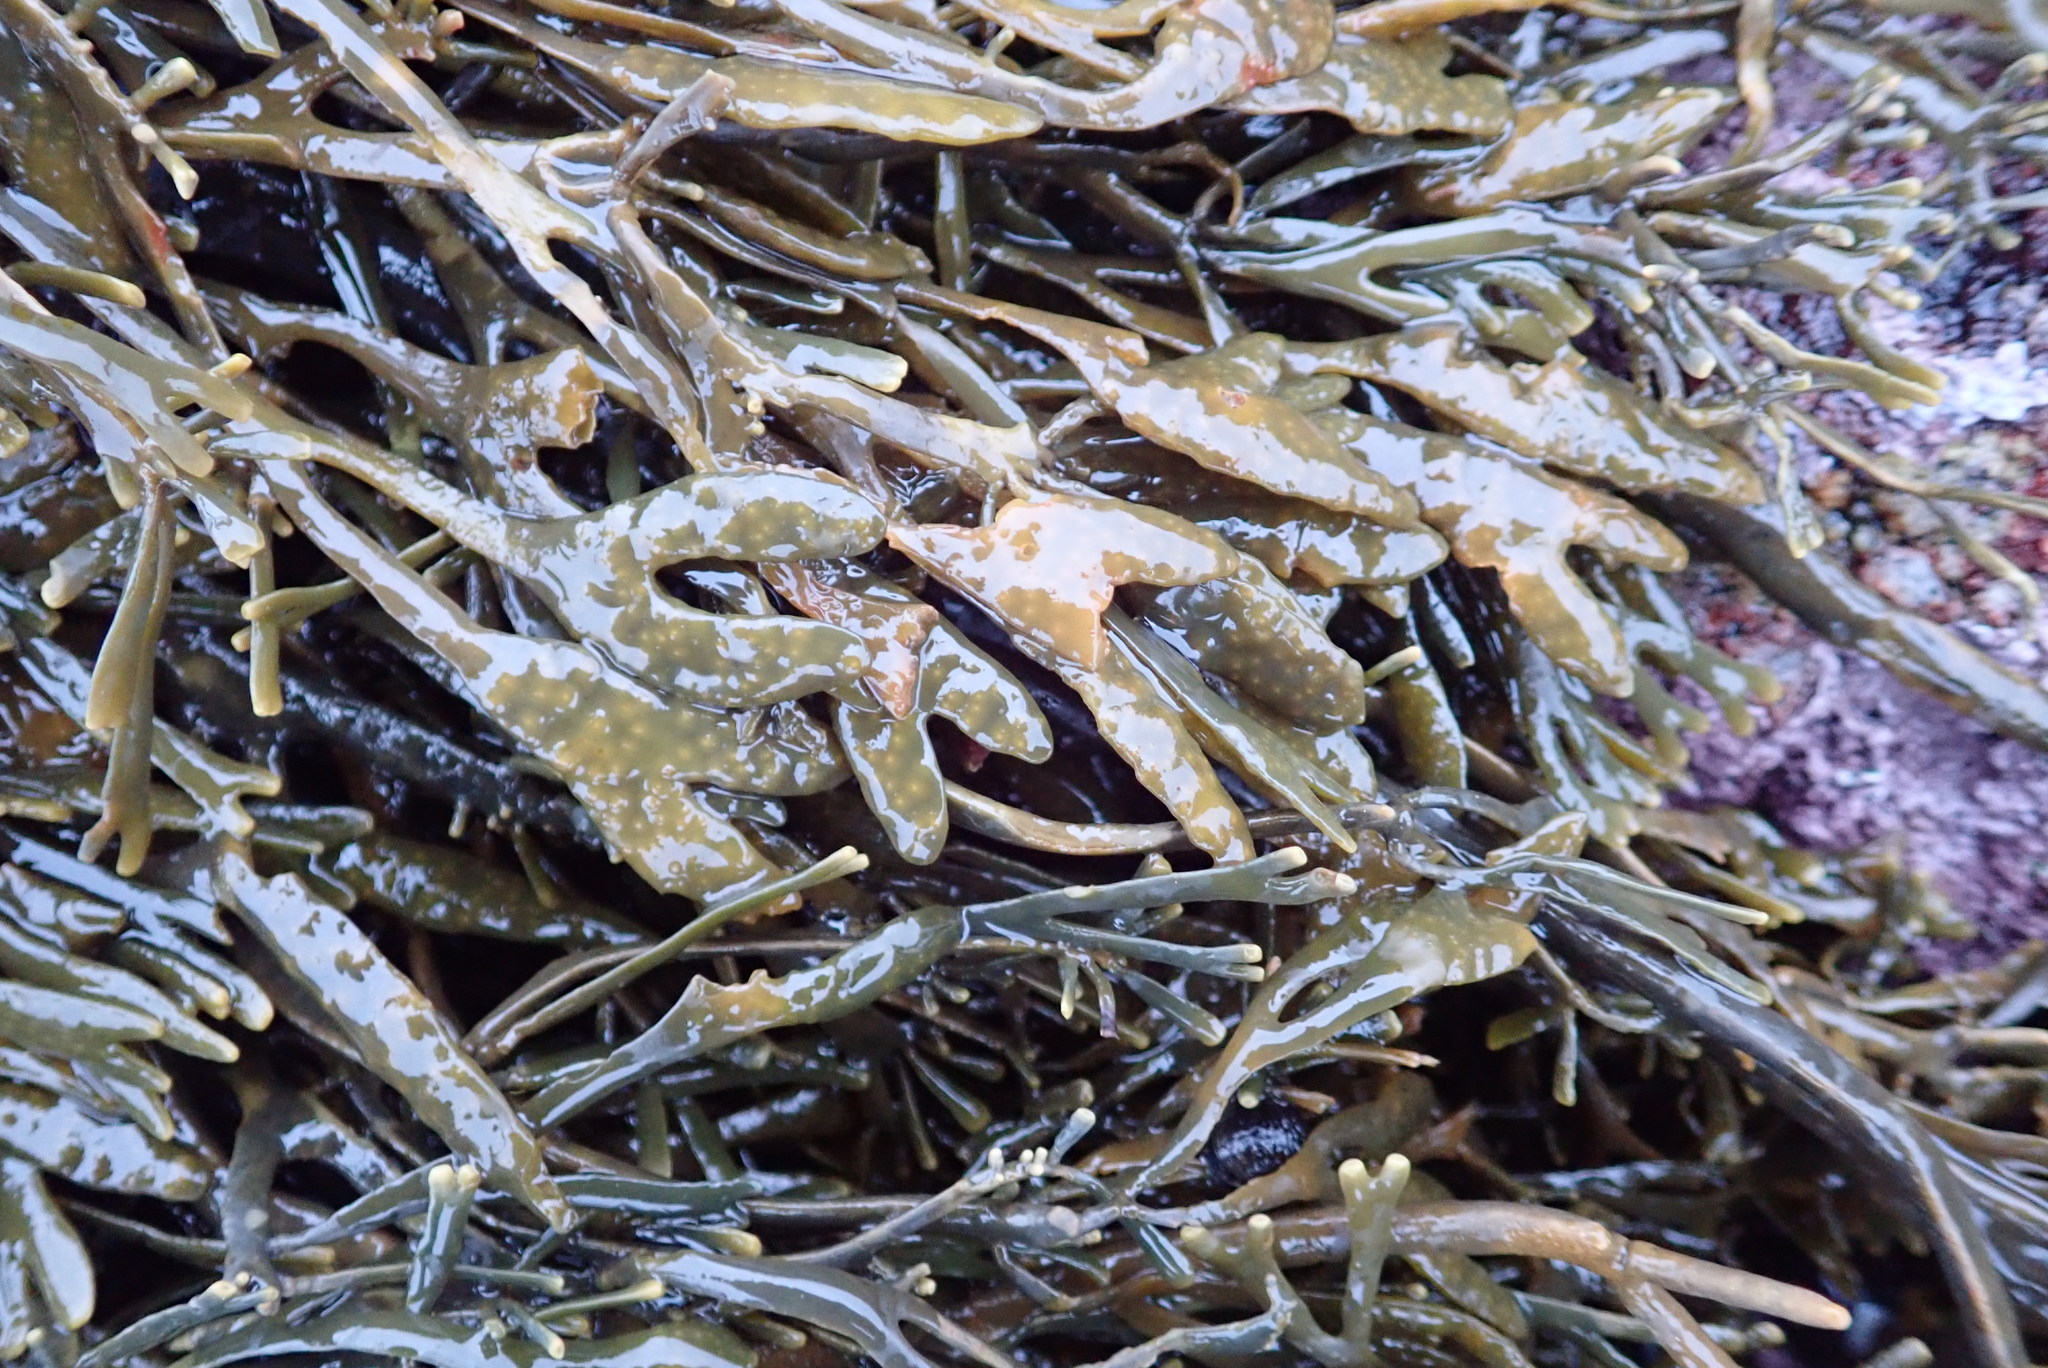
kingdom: Chromista
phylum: Ochrophyta
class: Phaeophyceae
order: Fucales
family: Fucaceae
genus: Silvetia
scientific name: Silvetia
